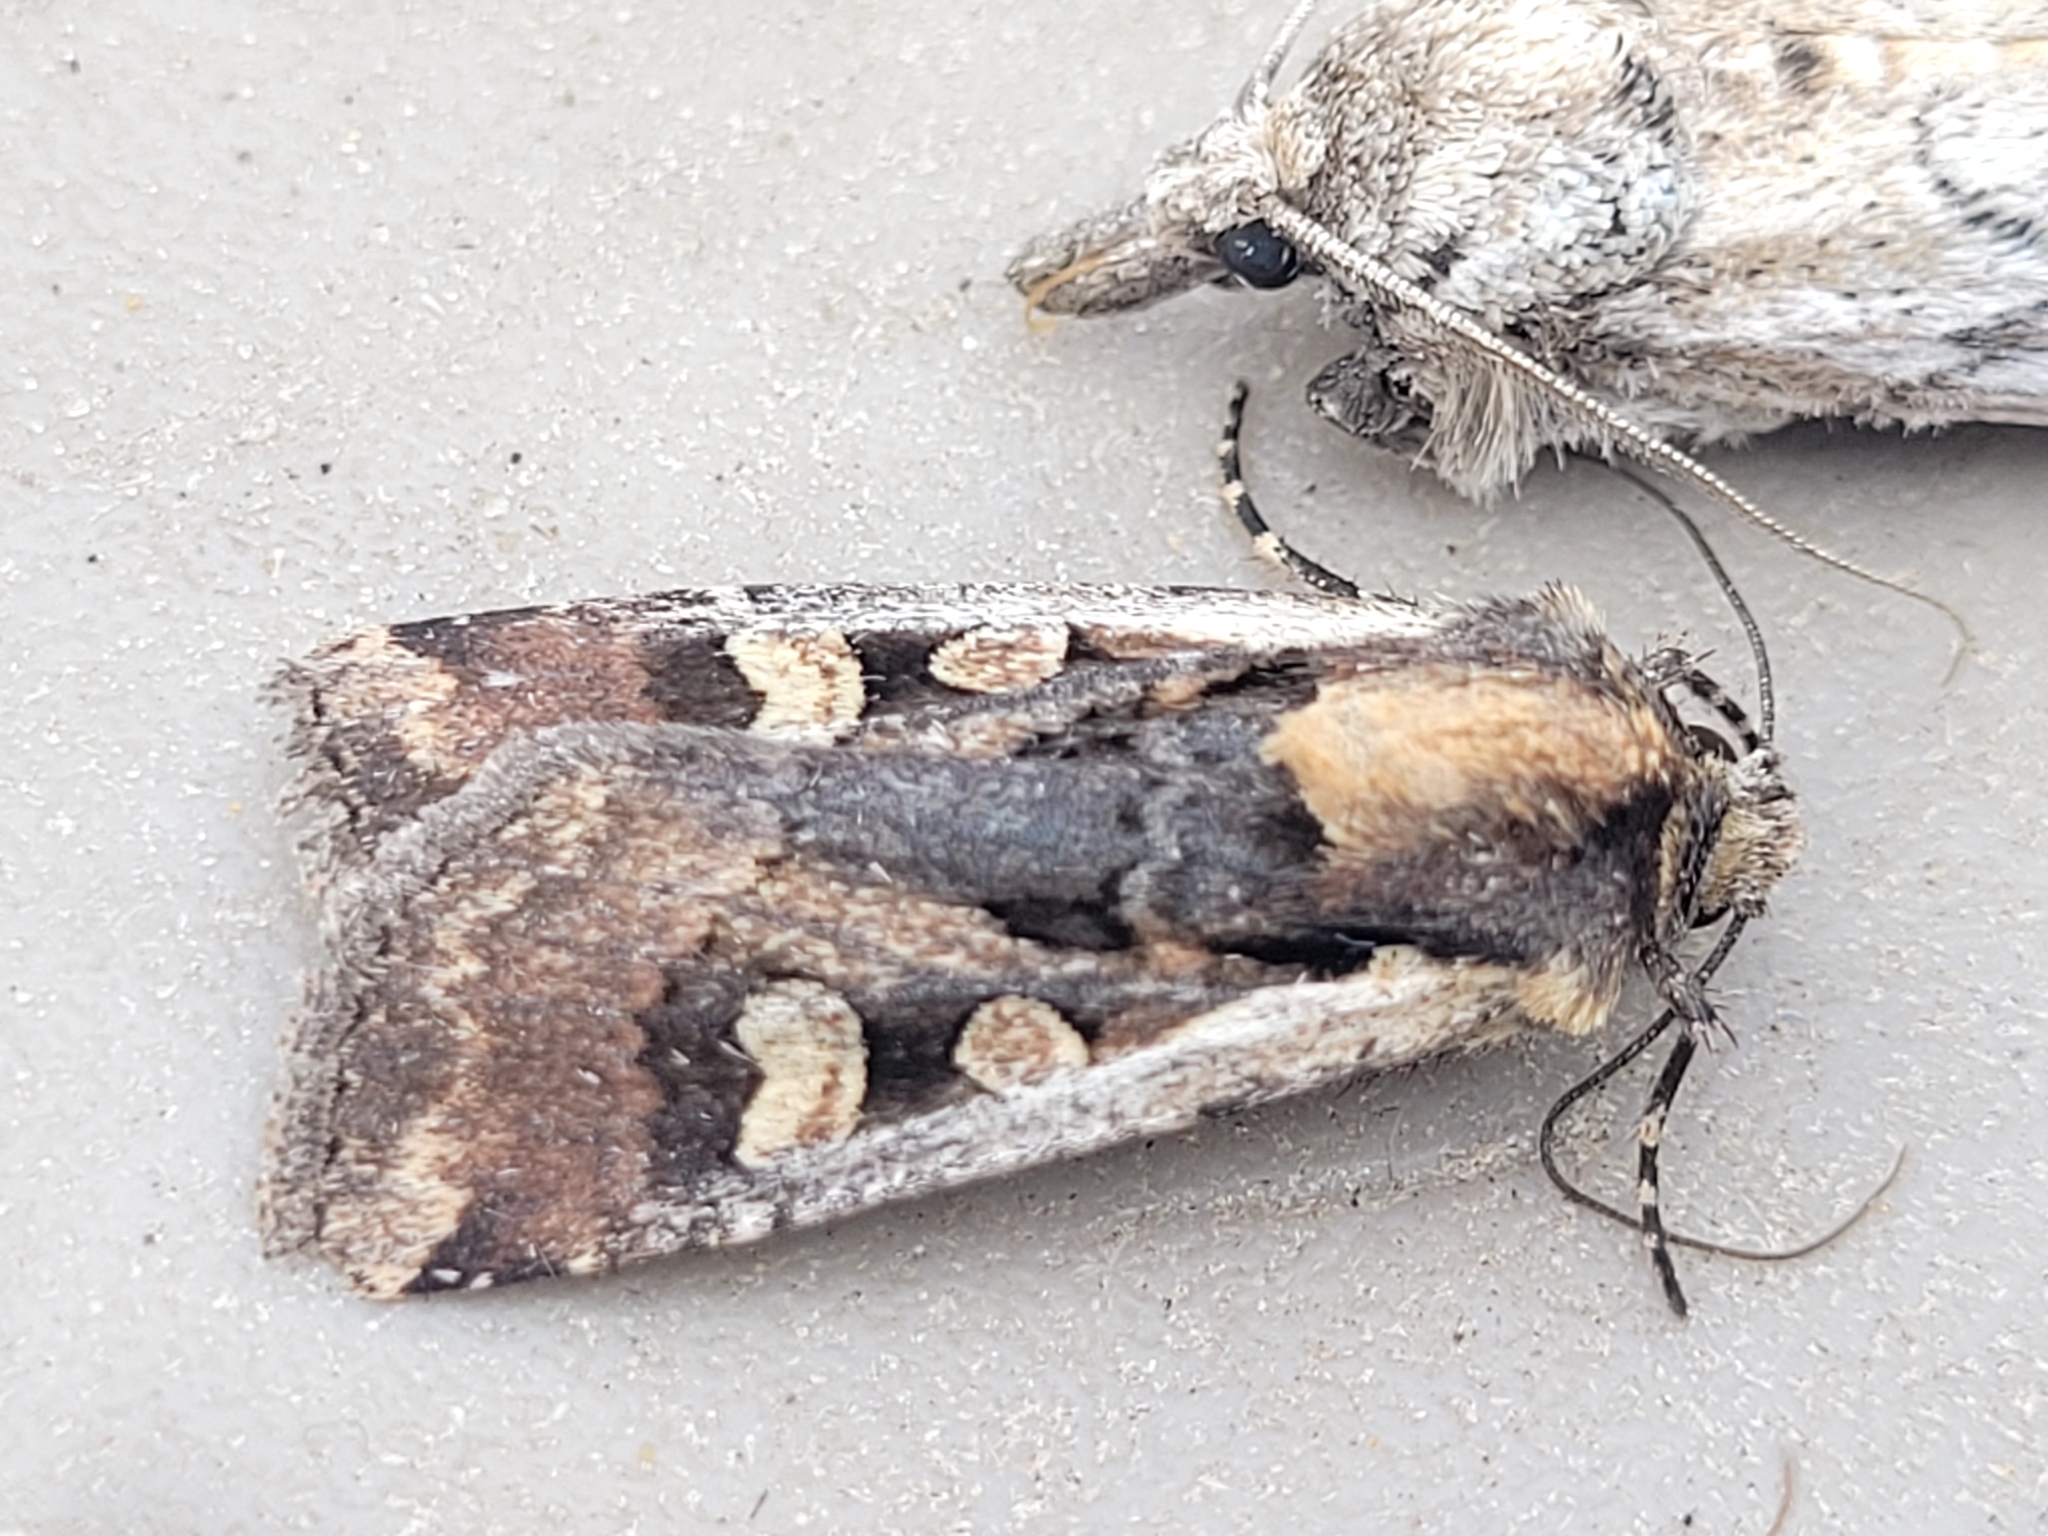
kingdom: Animalia
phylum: Arthropoda
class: Insecta
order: Lepidoptera
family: Noctuidae
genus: Euxoa
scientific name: Euxoa obeliscoides
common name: Obelisk dart moth
